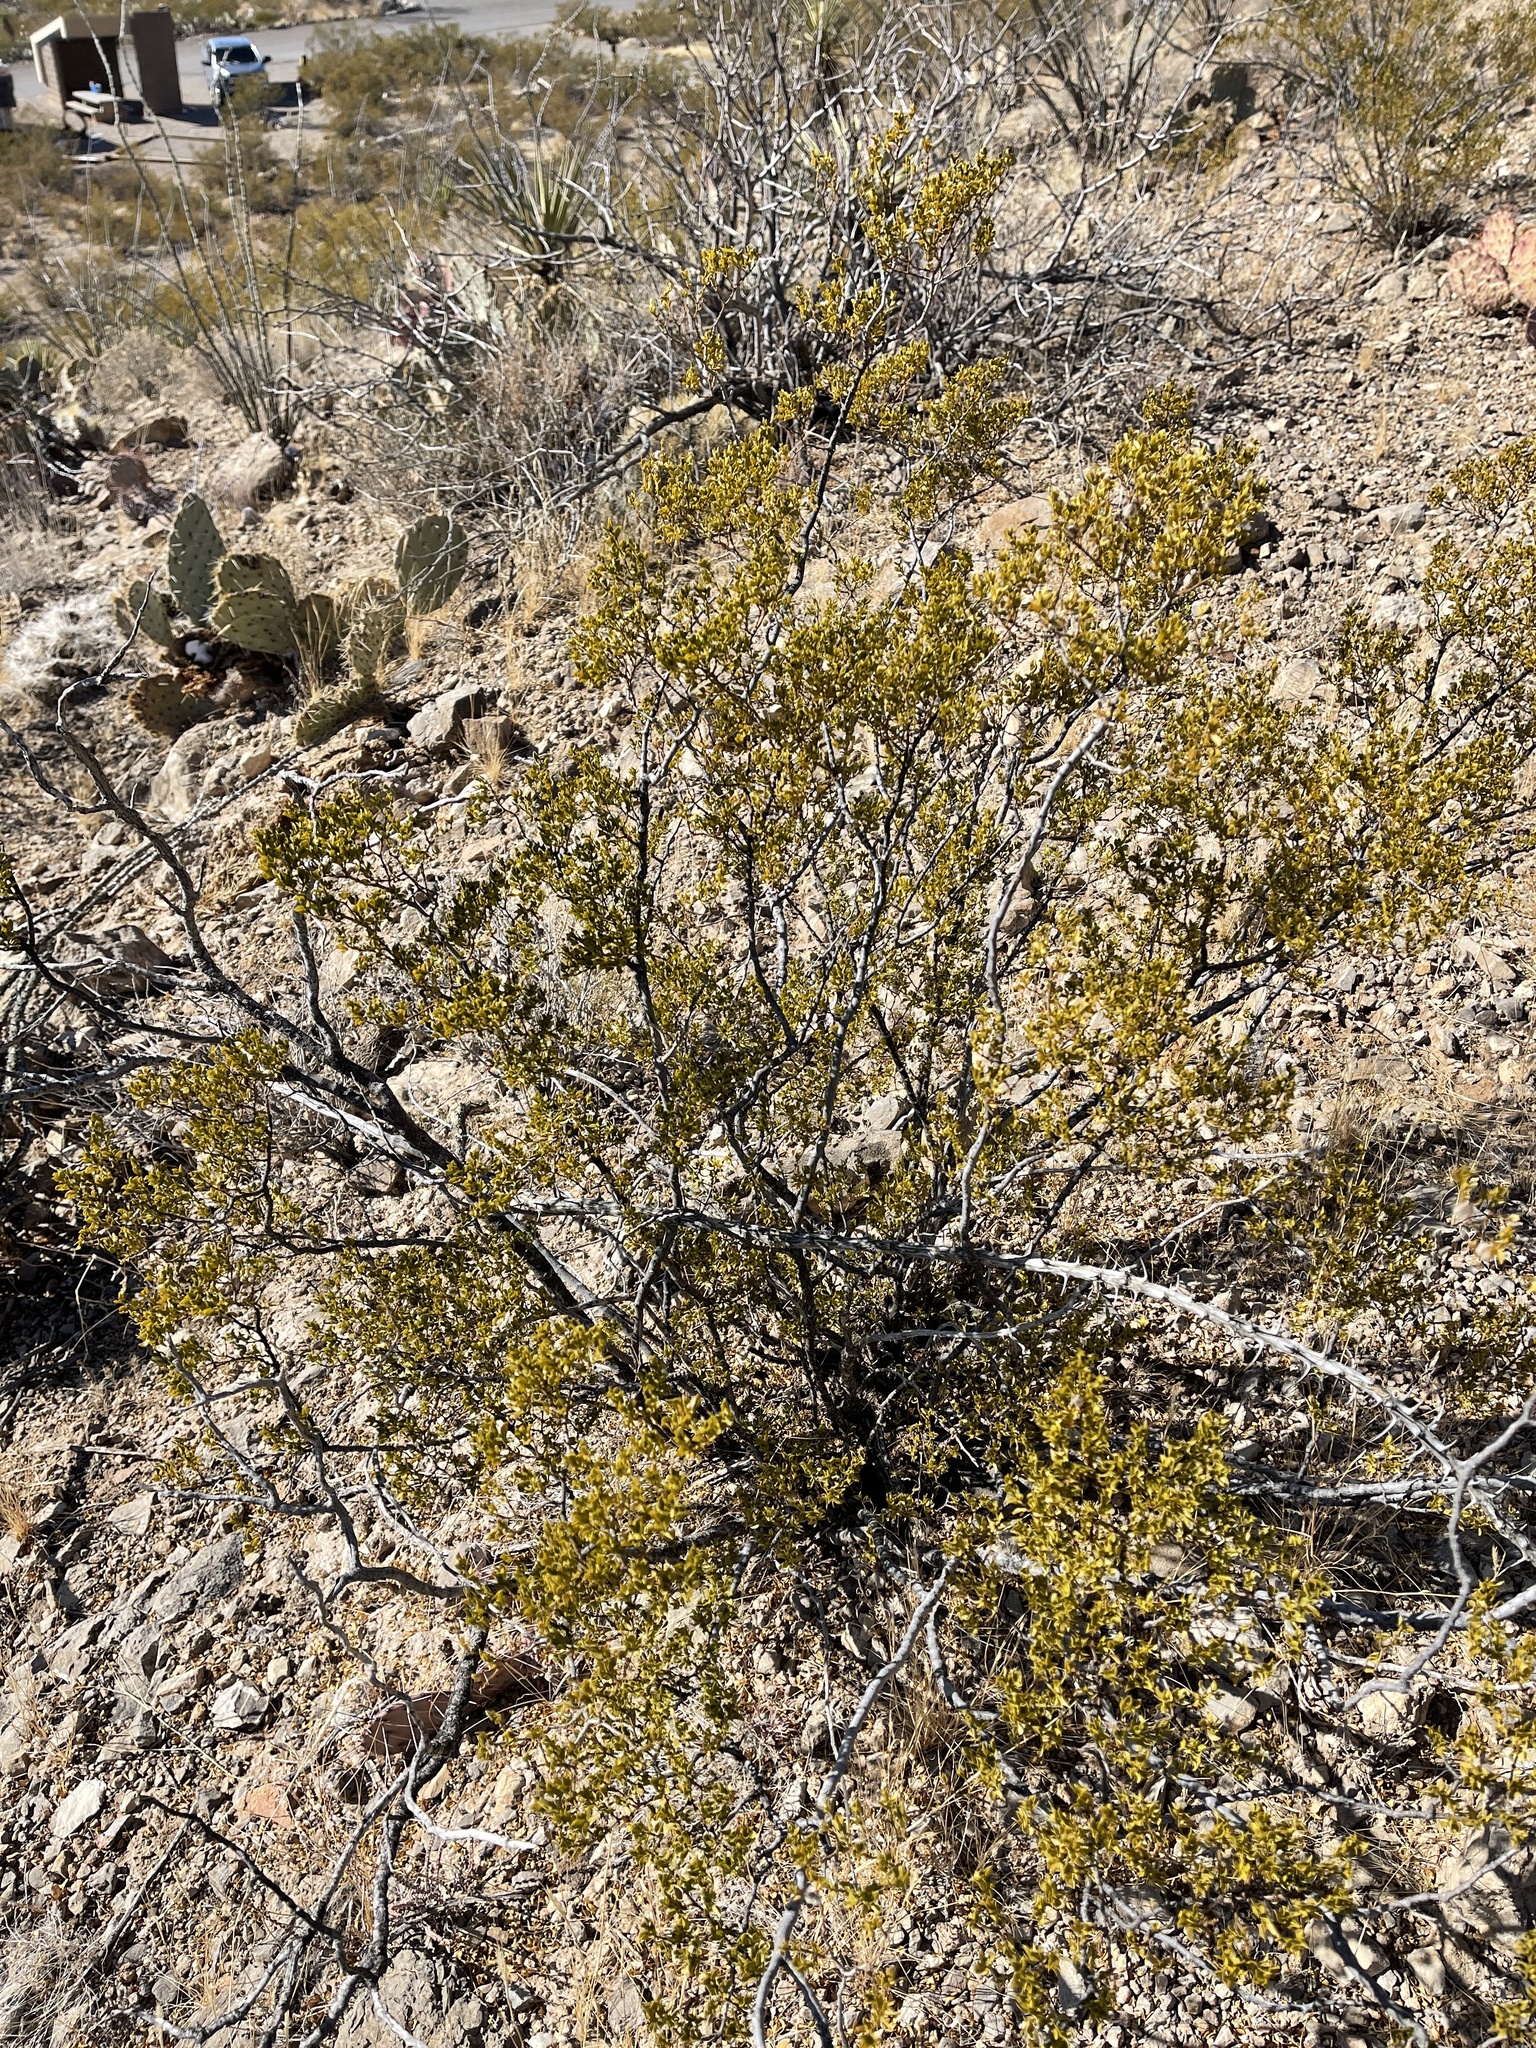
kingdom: Plantae
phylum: Tracheophyta
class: Magnoliopsida
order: Zygophyllales
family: Zygophyllaceae
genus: Larrea
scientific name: Larrea tridentata
